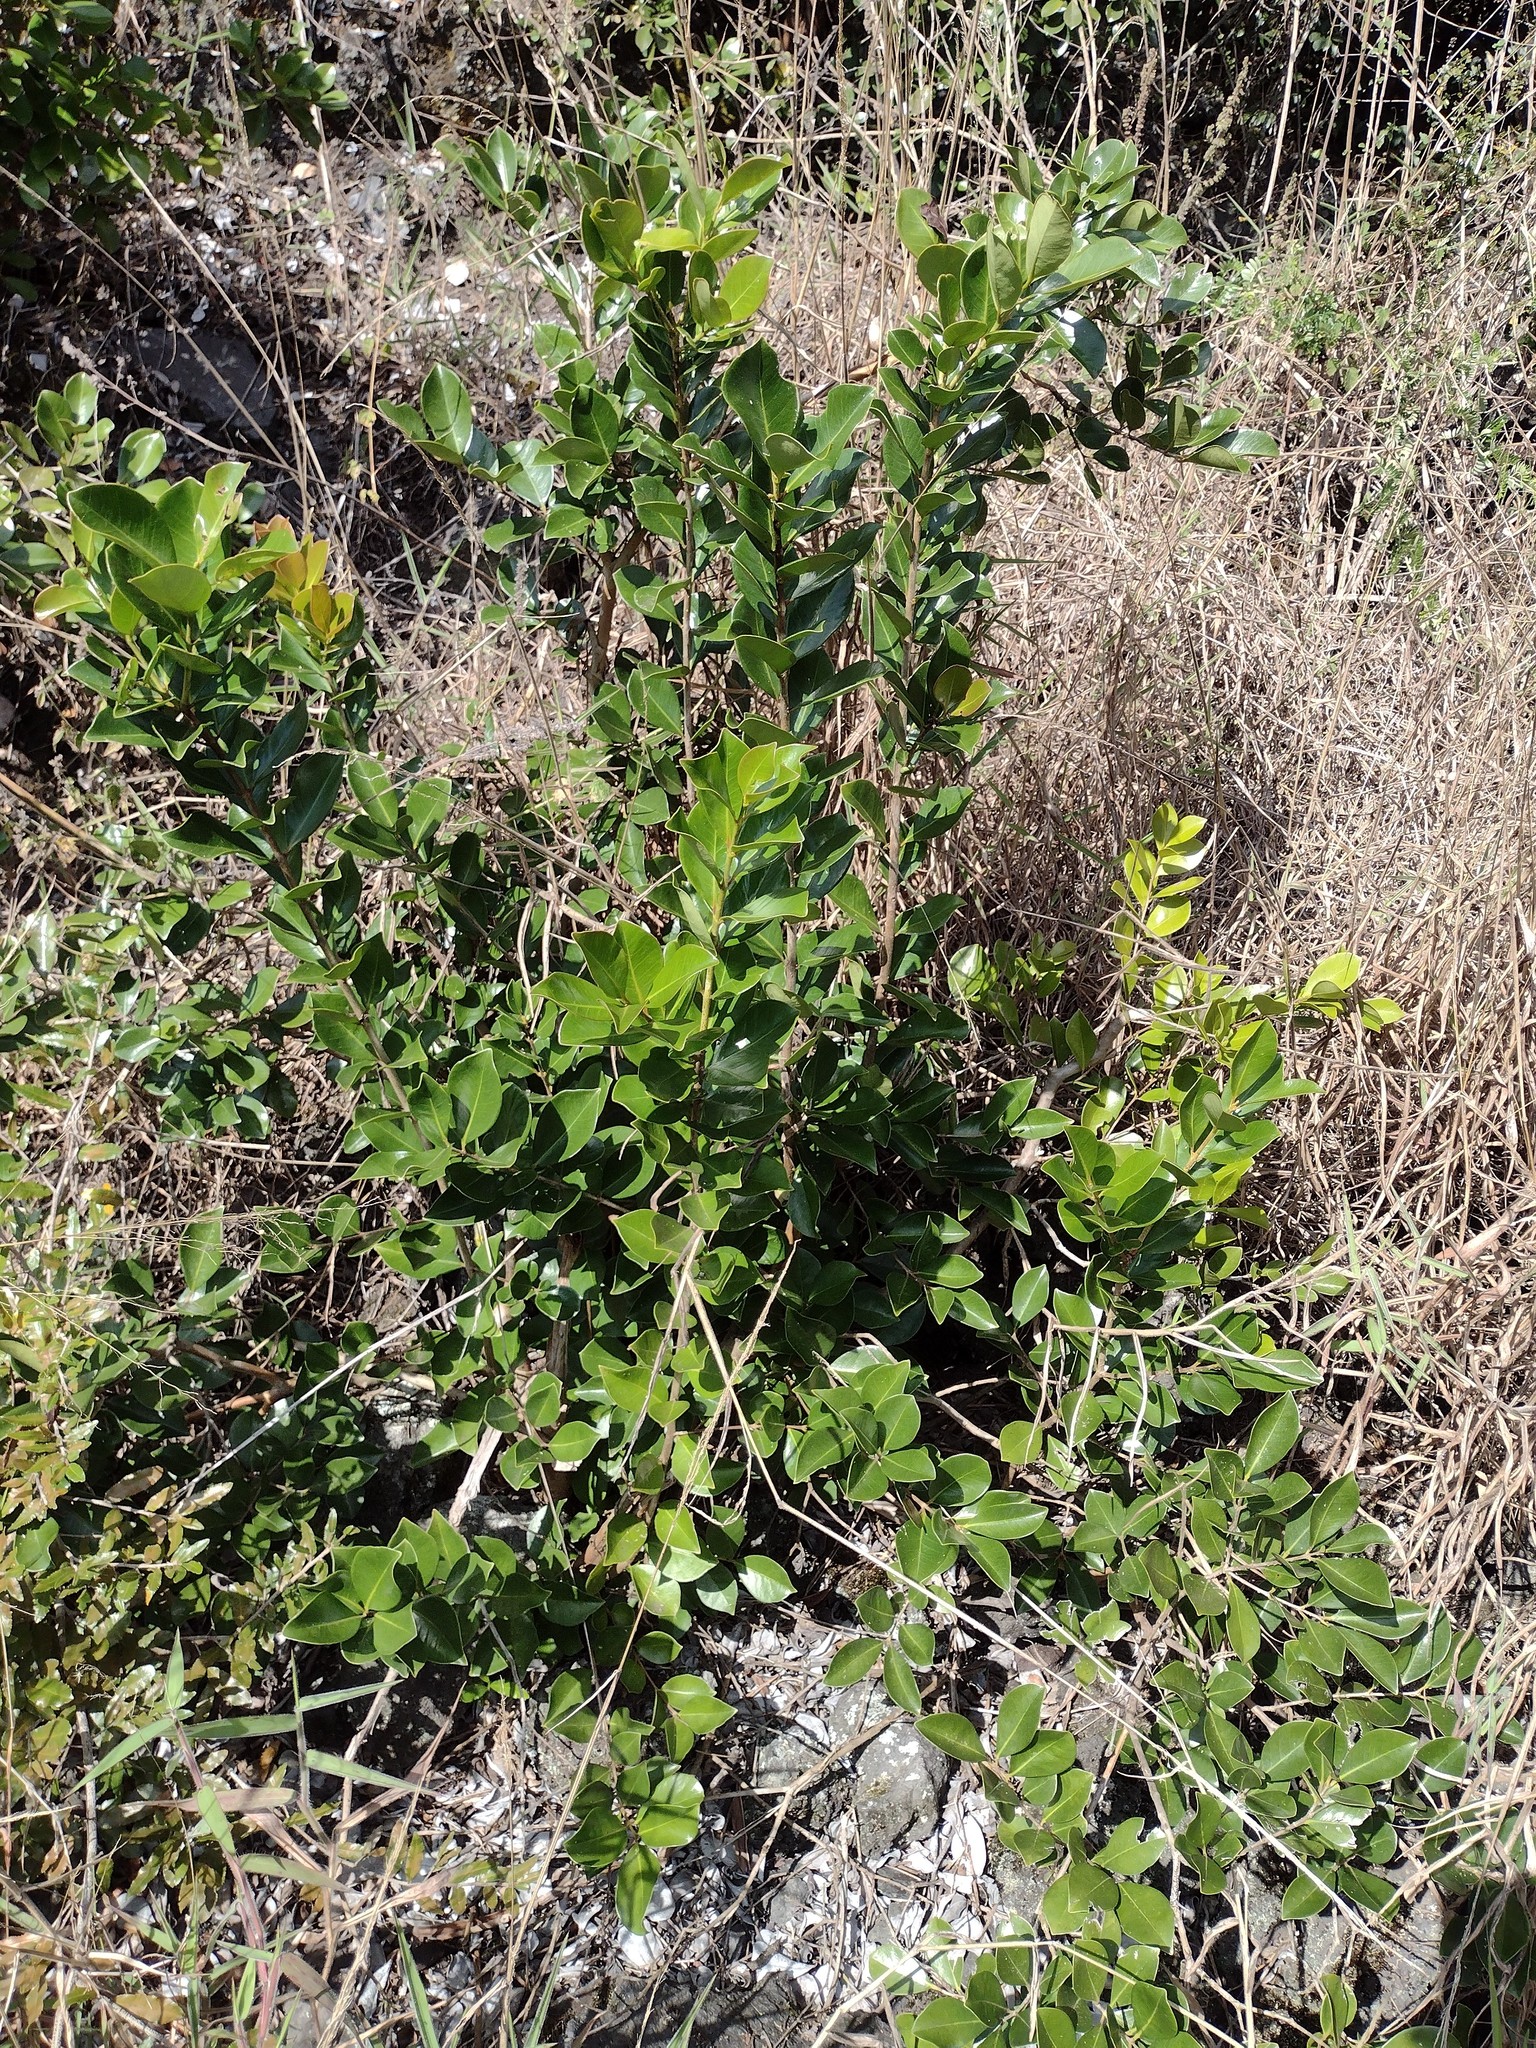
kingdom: Plantae
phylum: Tracheophyta
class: Magnoliopsida
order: Myrtales
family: Myrtaceae
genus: Psidium
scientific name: Psidium cattleianum
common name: Strawberry guava
